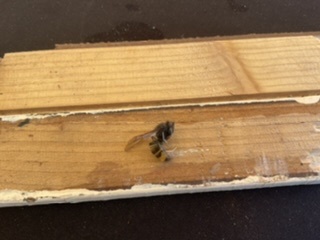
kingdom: Animalia
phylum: Arthropoda
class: Insecta
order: Hymenoptera
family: Vespidae
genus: Vespa
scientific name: Vespa velutina
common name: Asian hornet
